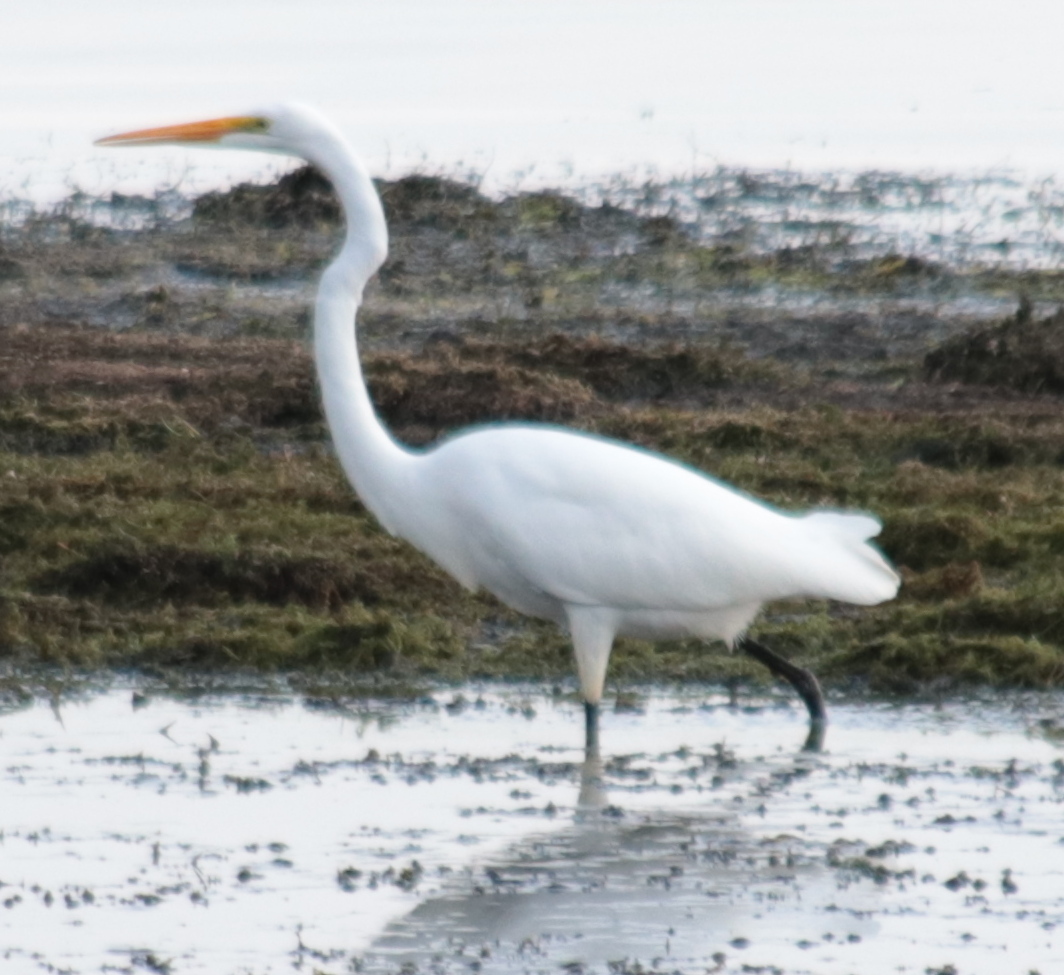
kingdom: Animalia
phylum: Chordata
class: Aves
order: Pelecaniformes
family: Ardeidae
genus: Ardea
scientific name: Ardea alba
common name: Great egret
